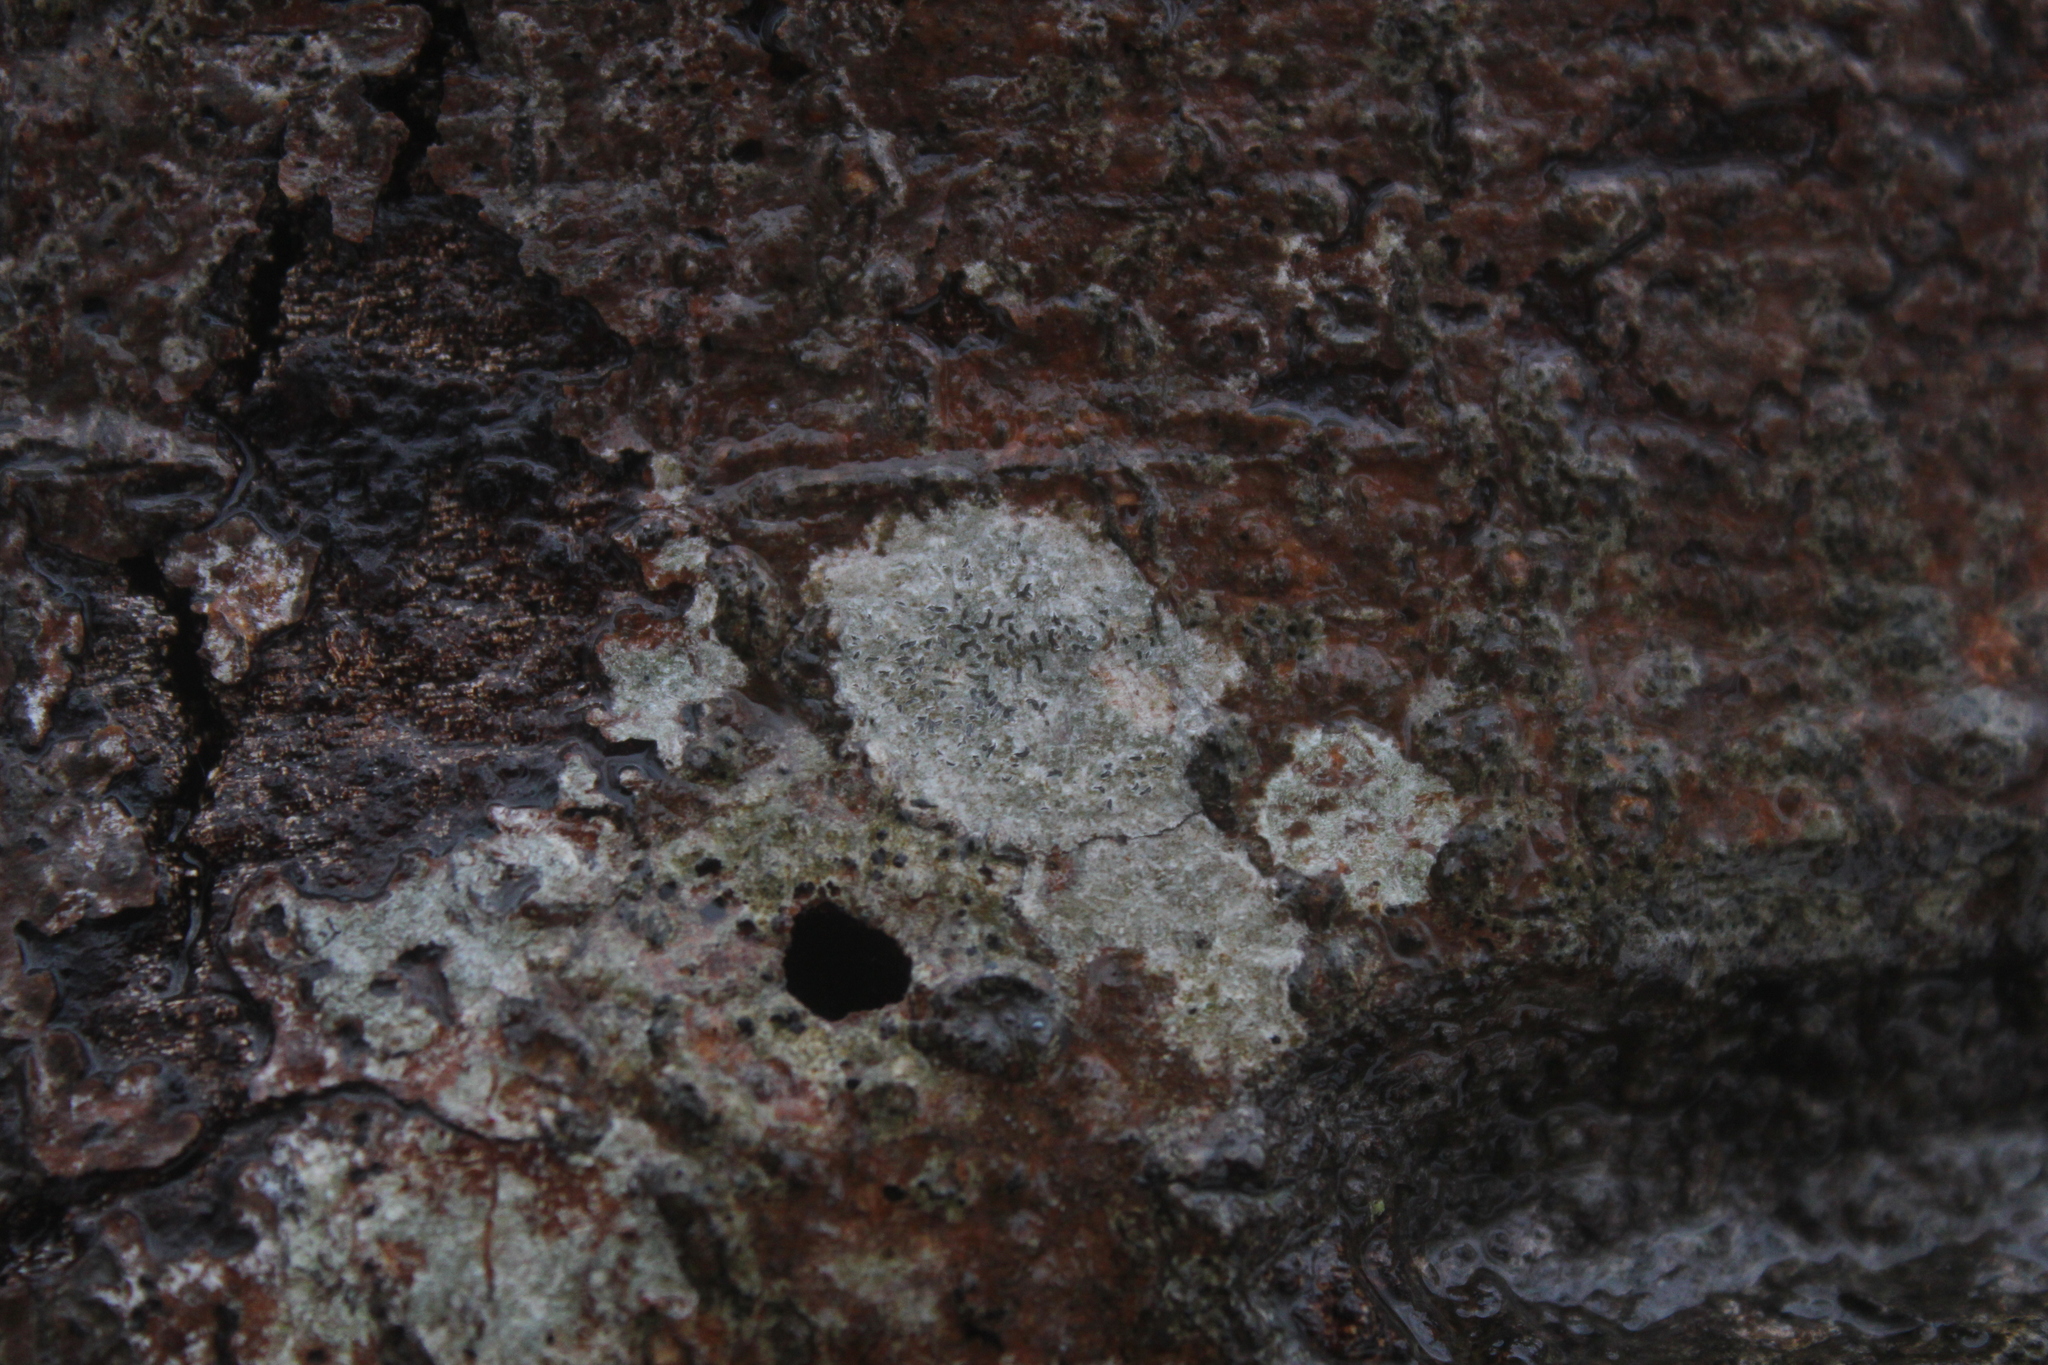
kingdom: Fungi
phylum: Ascomycota
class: Lecanoromycetes
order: Ostropales
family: Graphidaceae
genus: Graphis
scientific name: Graphis scripta
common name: Script lichen
